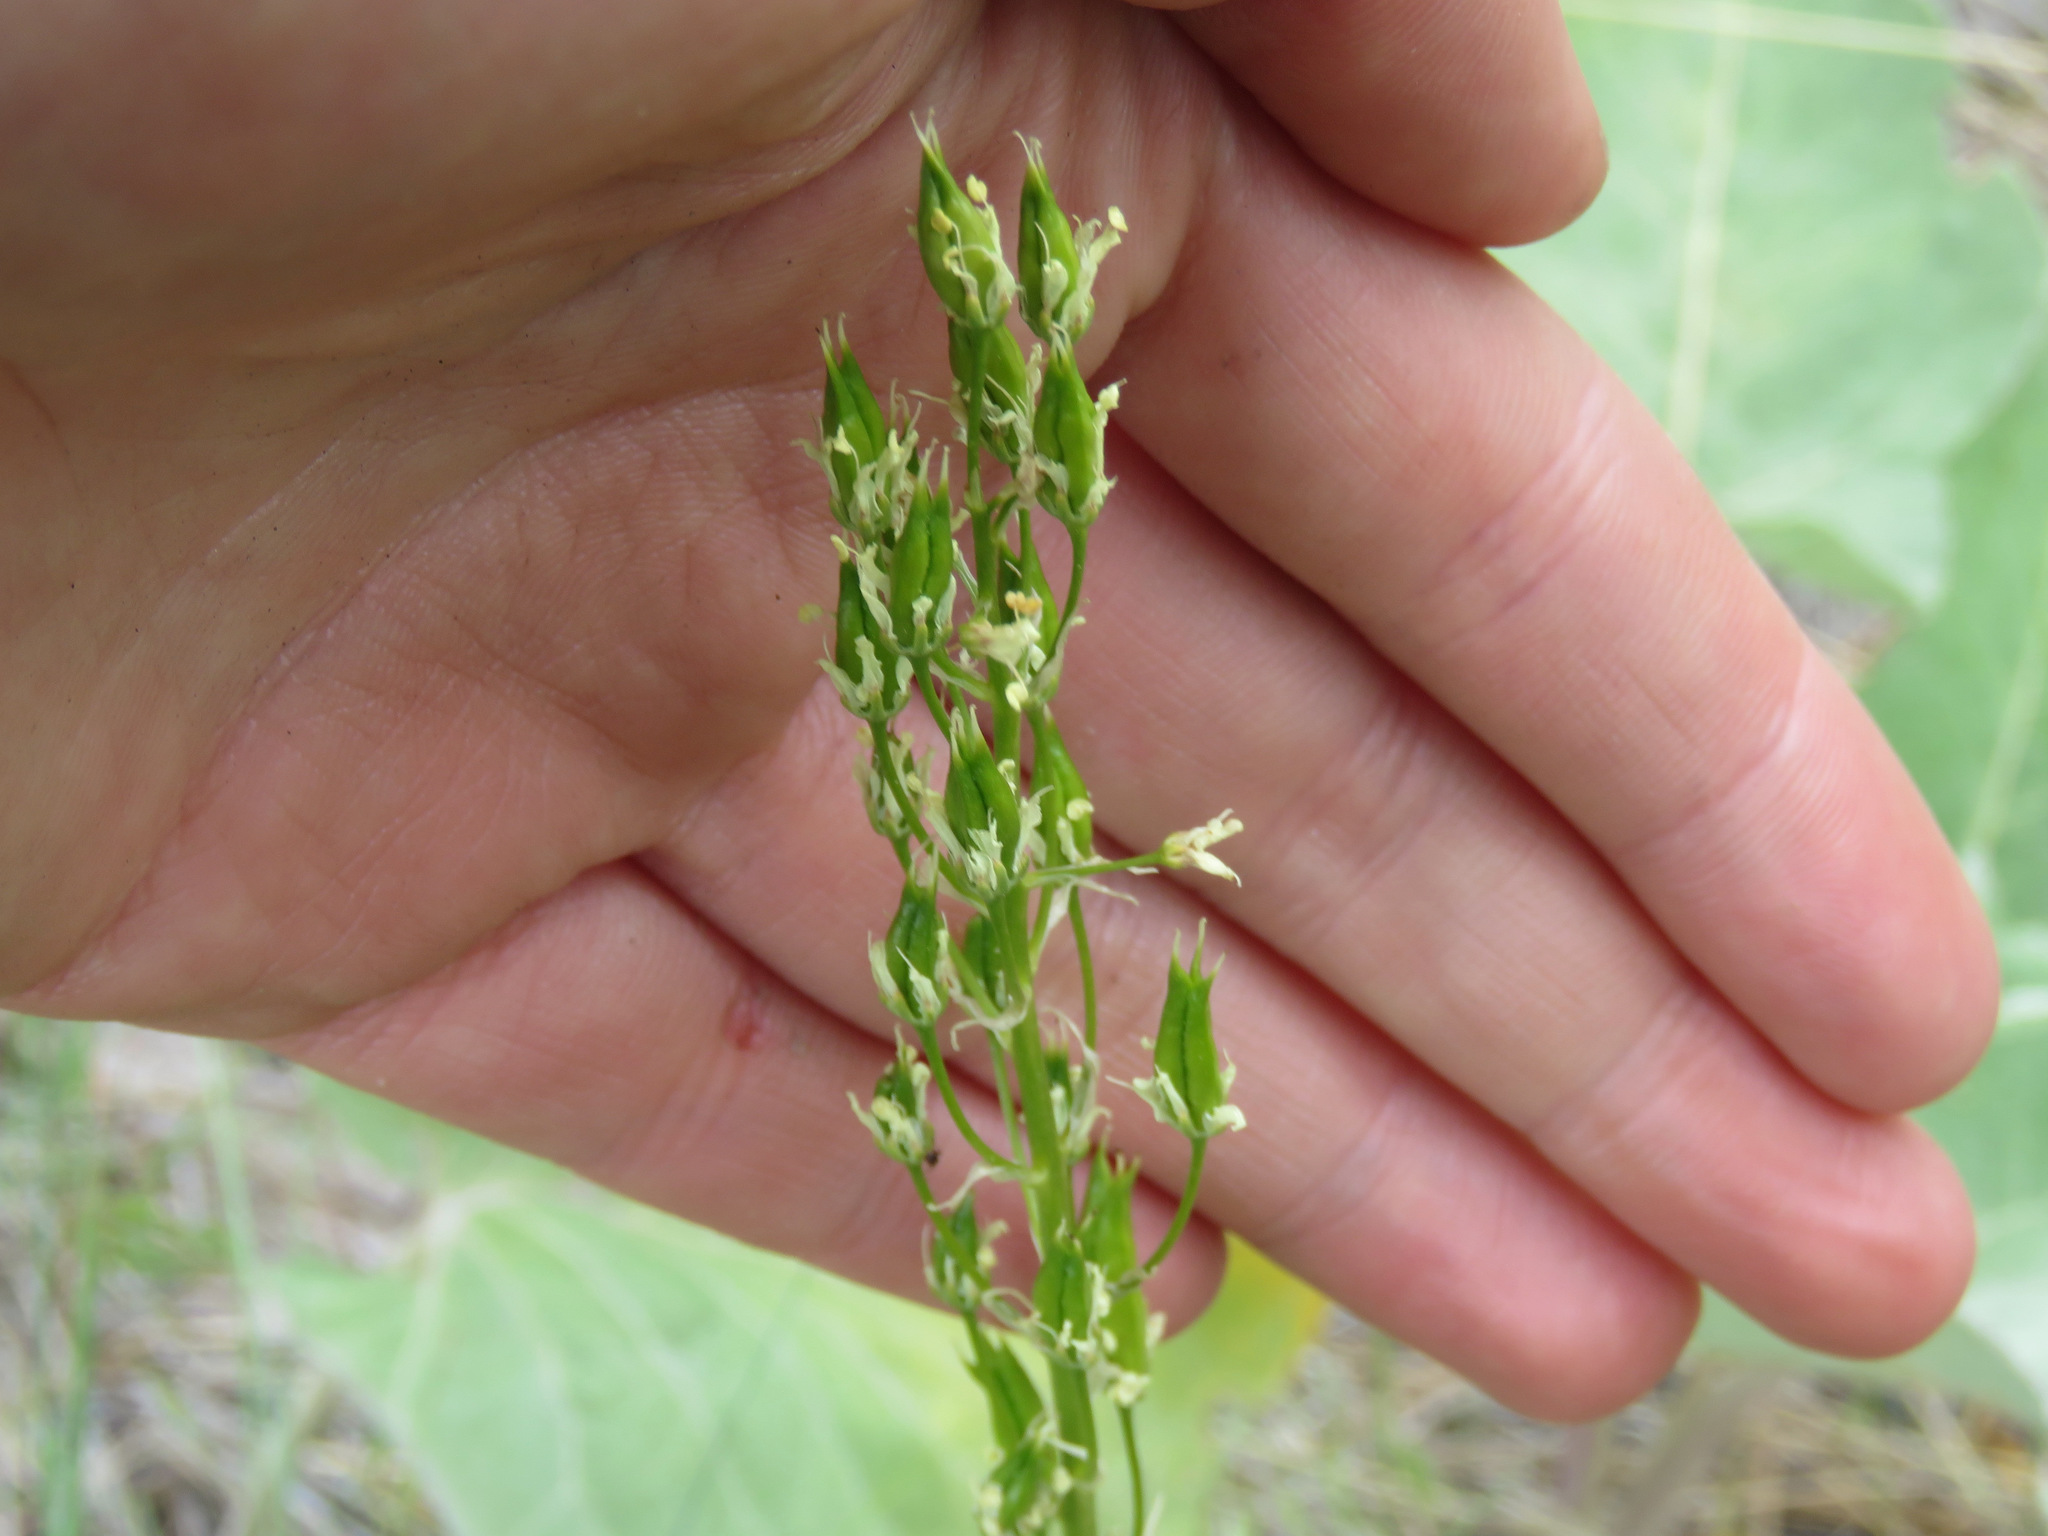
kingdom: Plantae
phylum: Tracheophyta
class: Liliopsida
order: Liliales
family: Melanthiaceae
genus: Toxicoscordion
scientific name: Toxicoscordion venenosum
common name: Meadow death camas
